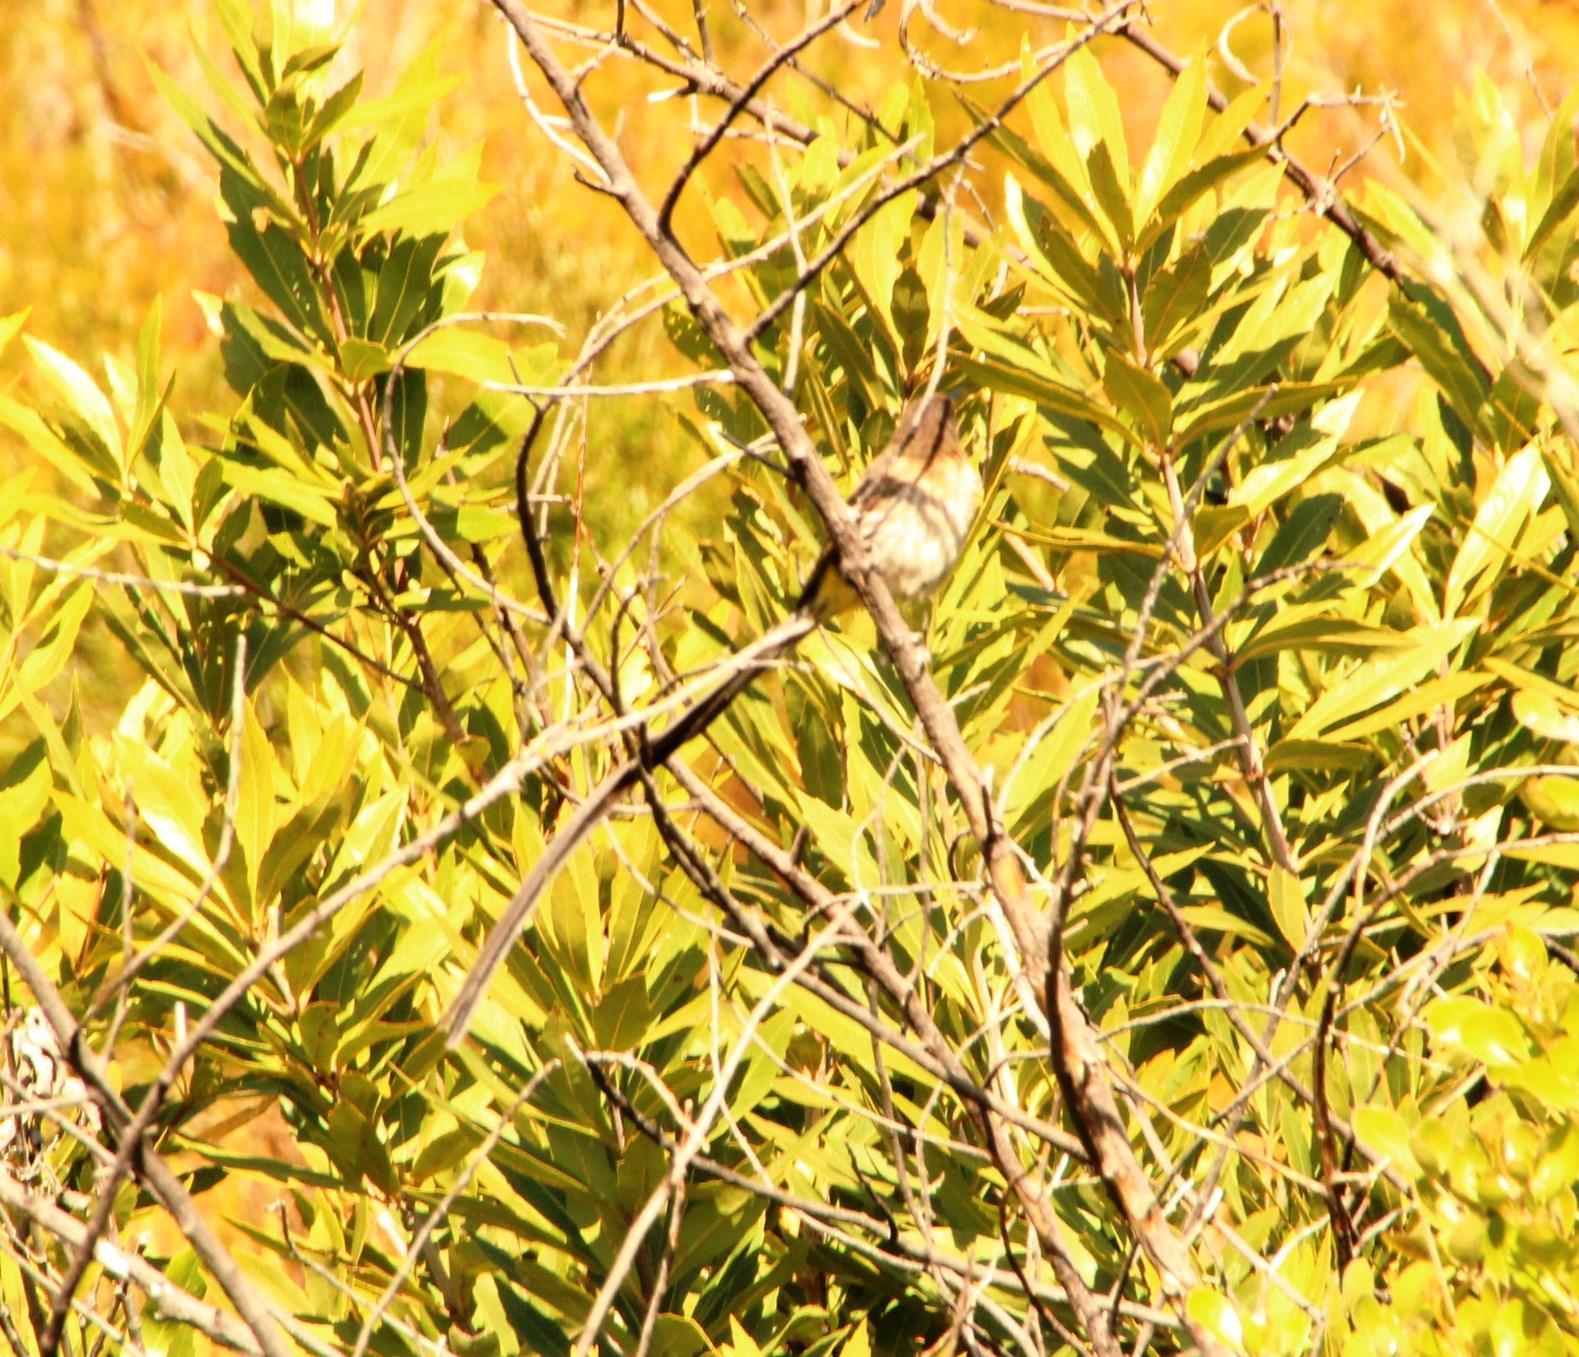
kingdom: Animalia
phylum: Chordata
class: Aves
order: Passeriformes
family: Promeropidae
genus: Promerops
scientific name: Promerops cafer
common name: Cape sugarbird
